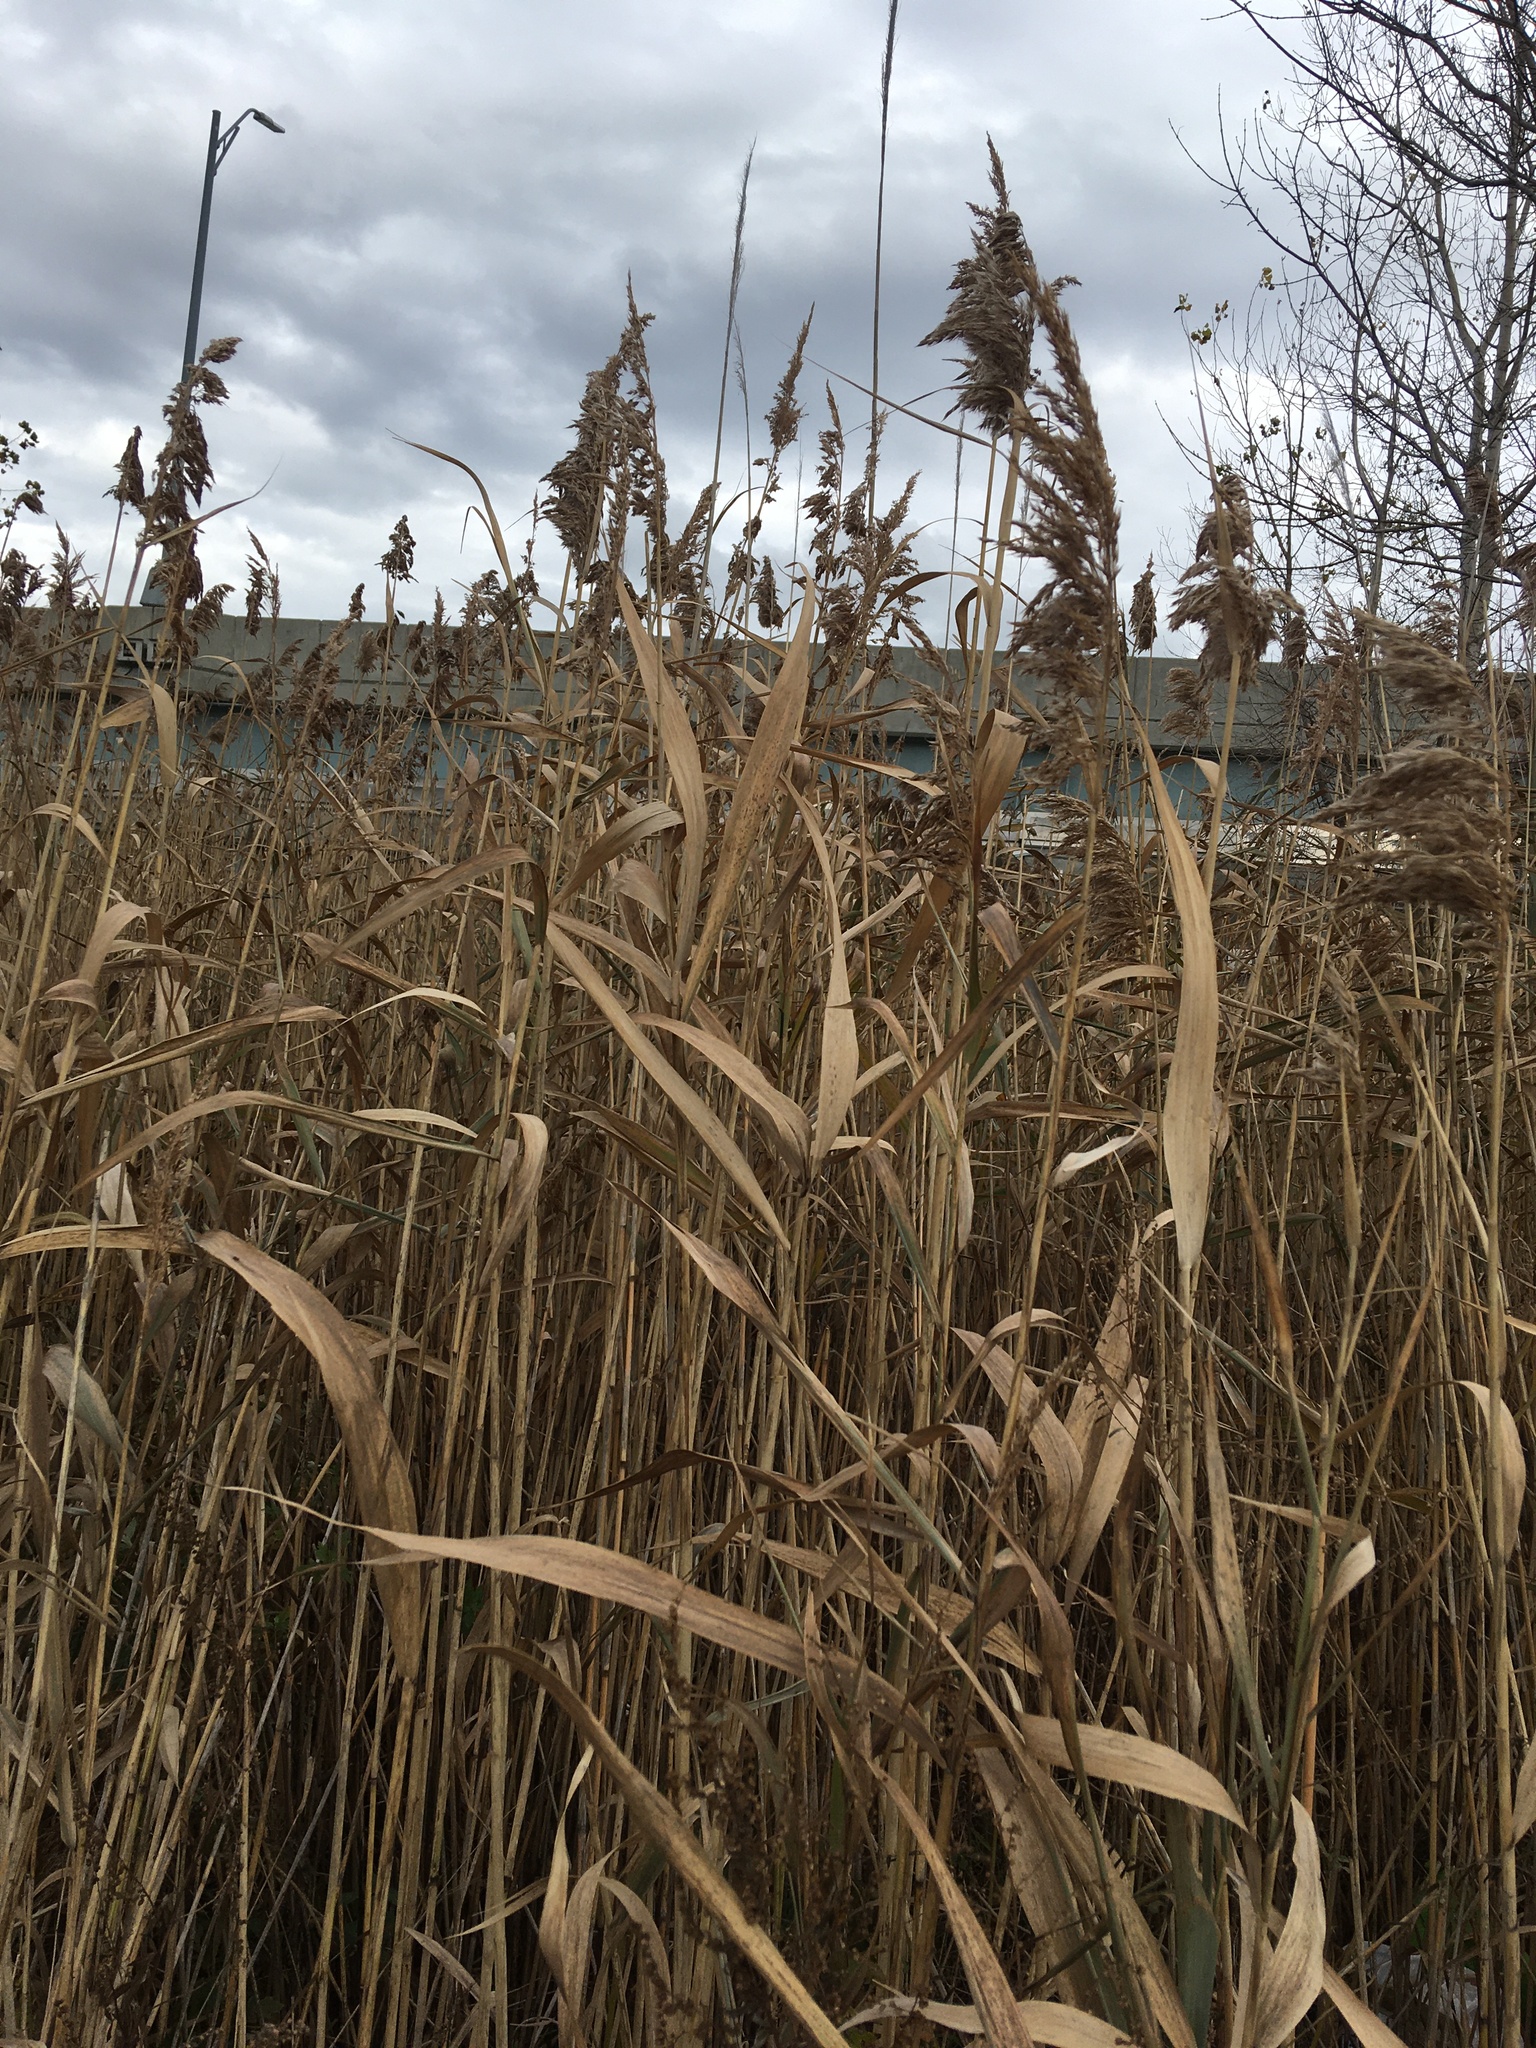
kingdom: Plantae
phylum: Tracheophyta
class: Liliopsida
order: Poales
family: Poaceae
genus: Phragmites
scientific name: Phragmites australis
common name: Common reed
